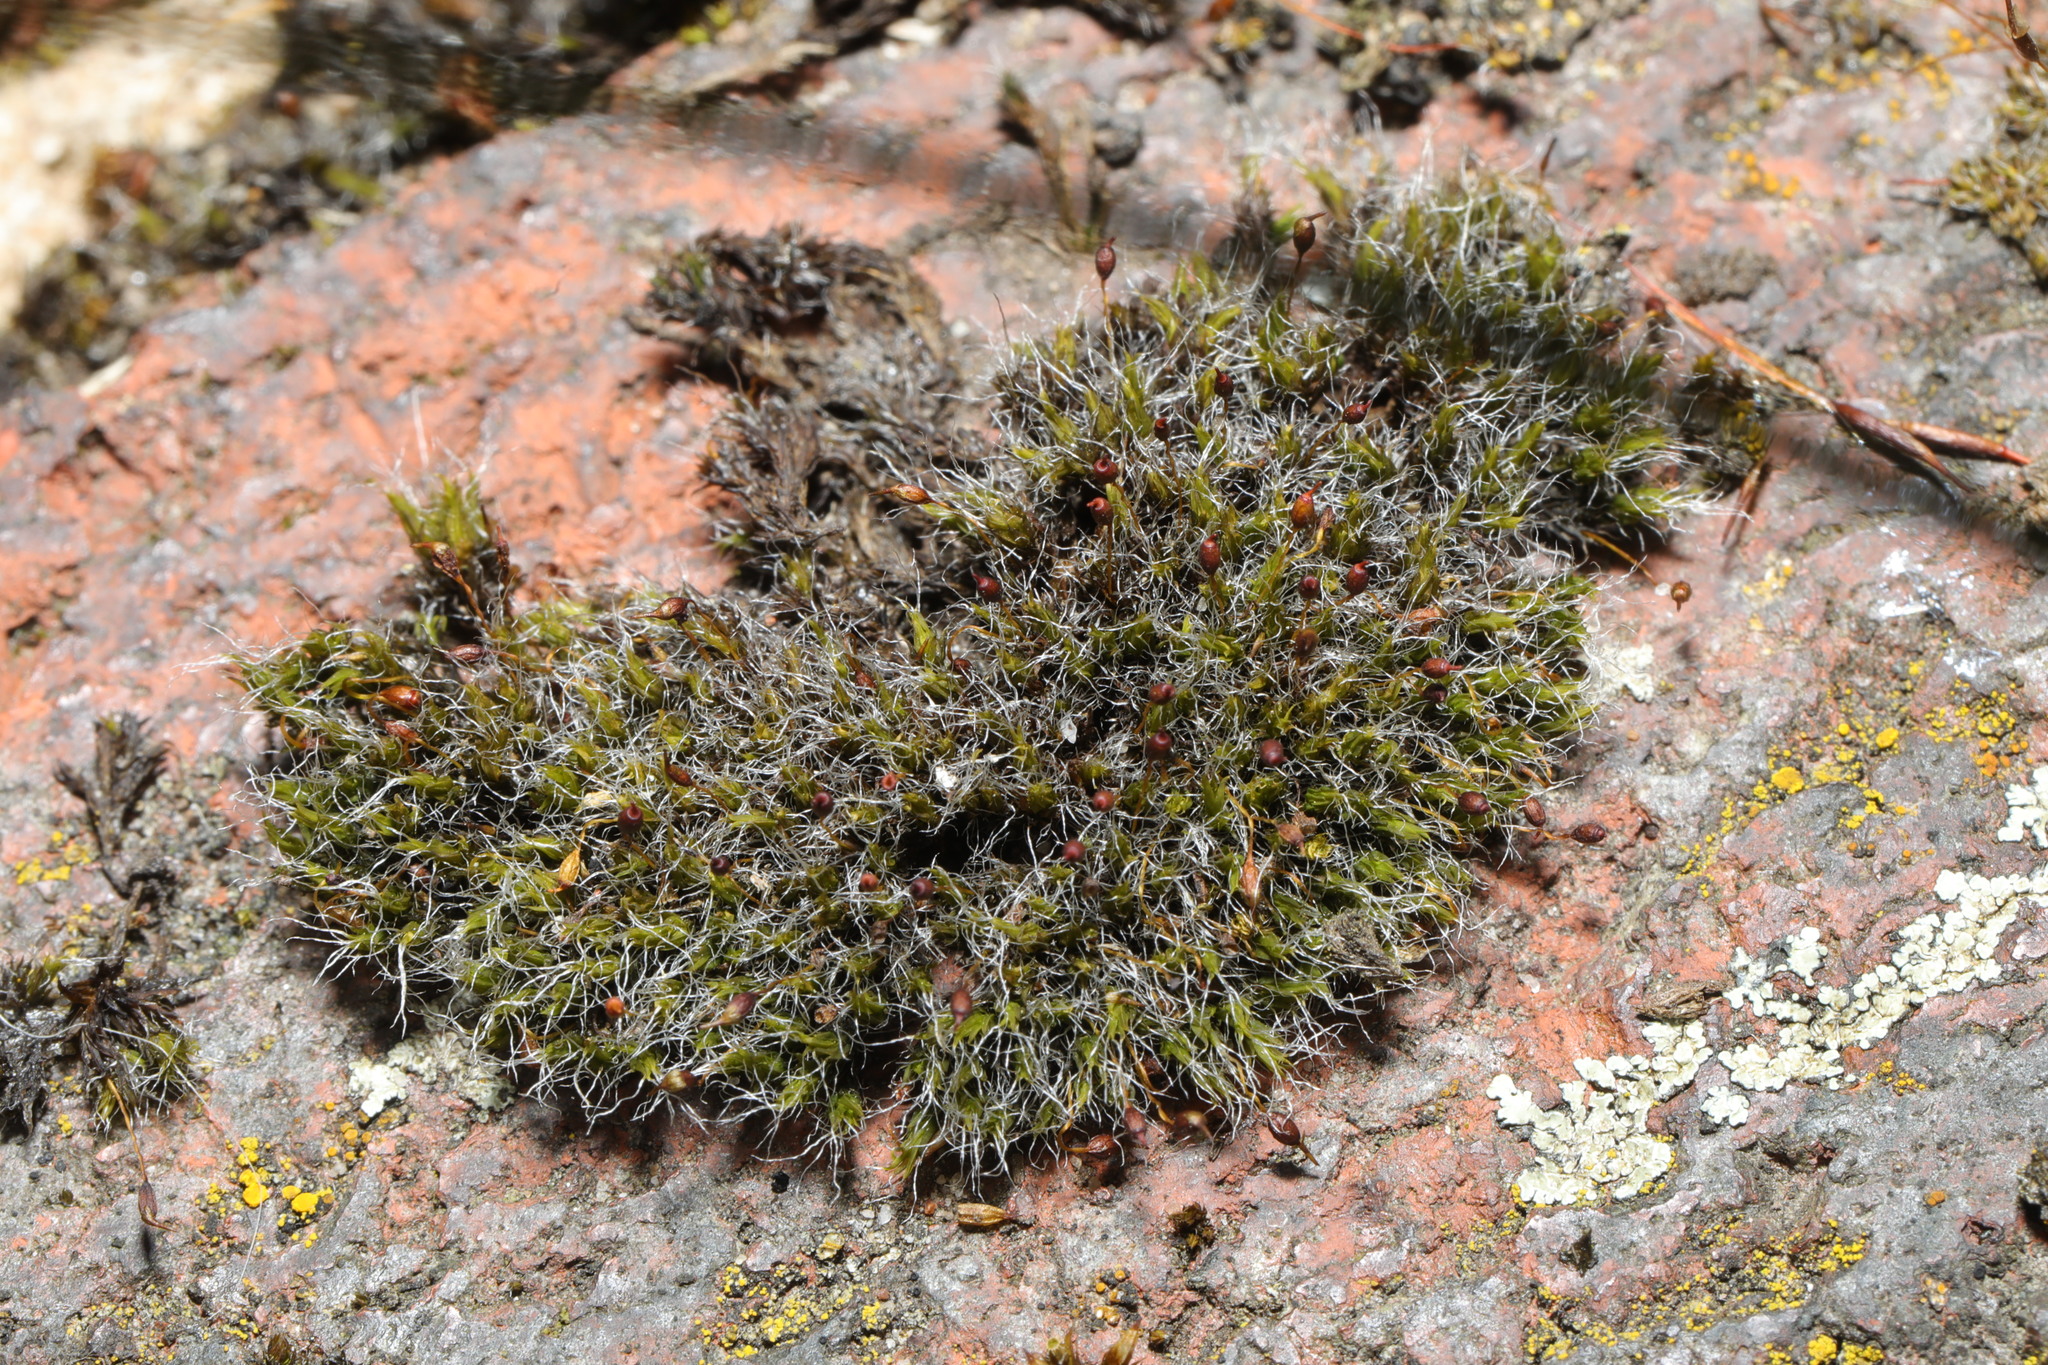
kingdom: Plantae
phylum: Bryophyta
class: Bryopsida
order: Grimmiales
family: Grimmiaceae
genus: Grimmia
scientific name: Grimmia pulvinata
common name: Grey-cushioned grimmia
